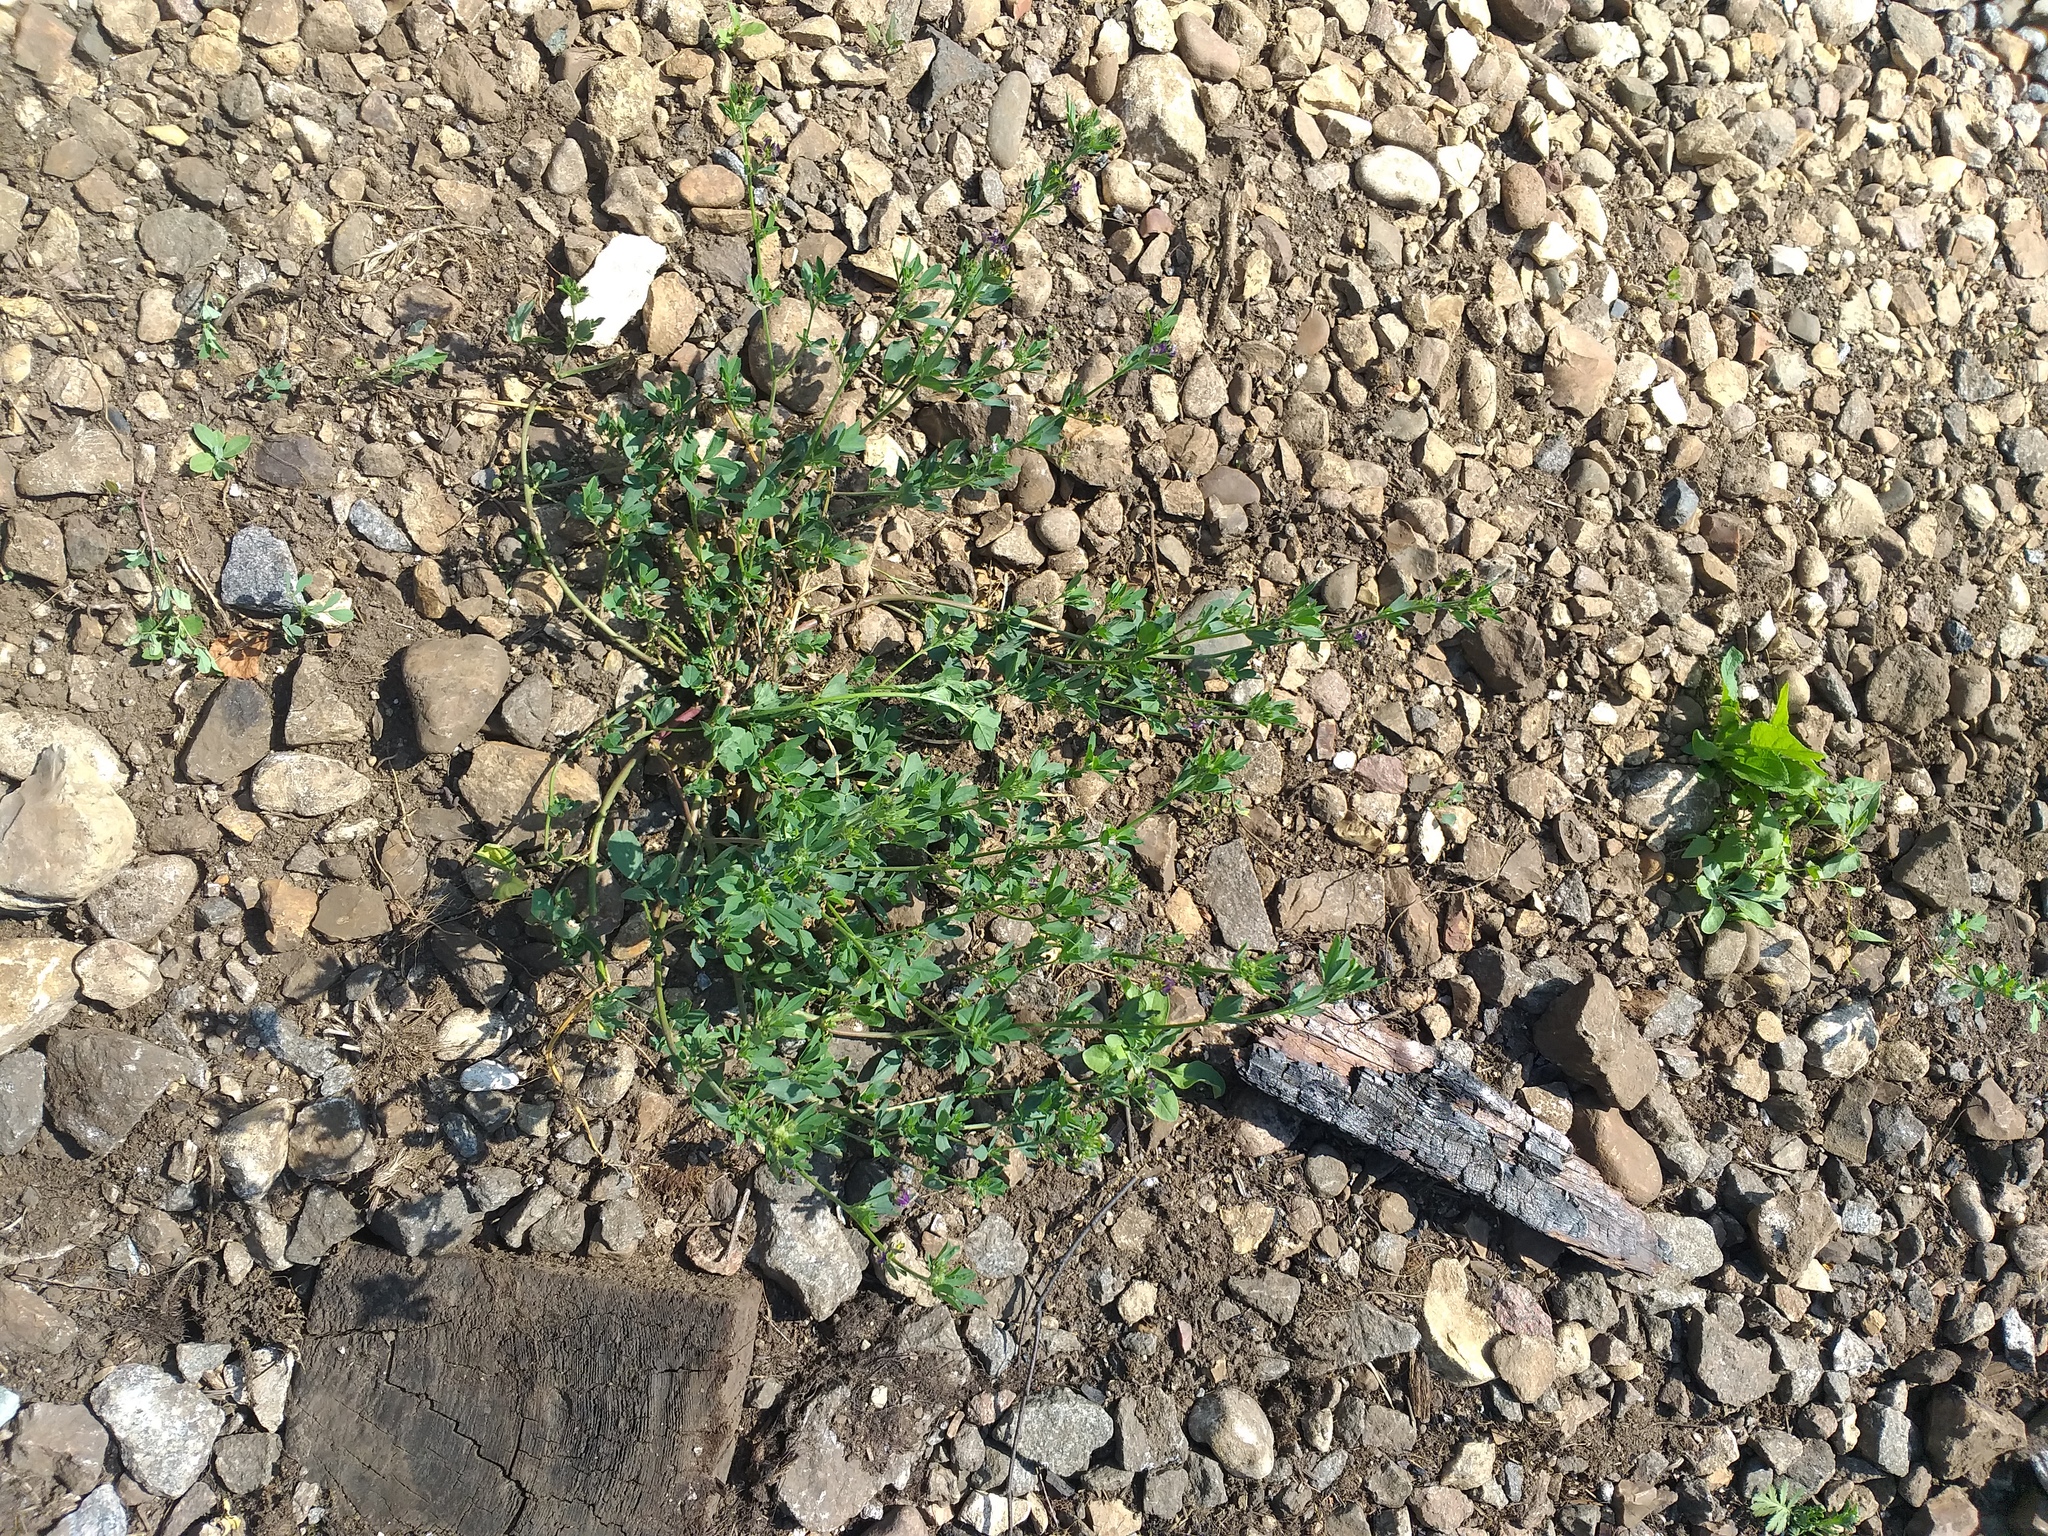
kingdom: Plantae
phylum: Tracheophyta
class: Magnoliopsida
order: Fabales
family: Fabaceae
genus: Medicago
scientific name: Medicago varia
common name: Sand lucerne
